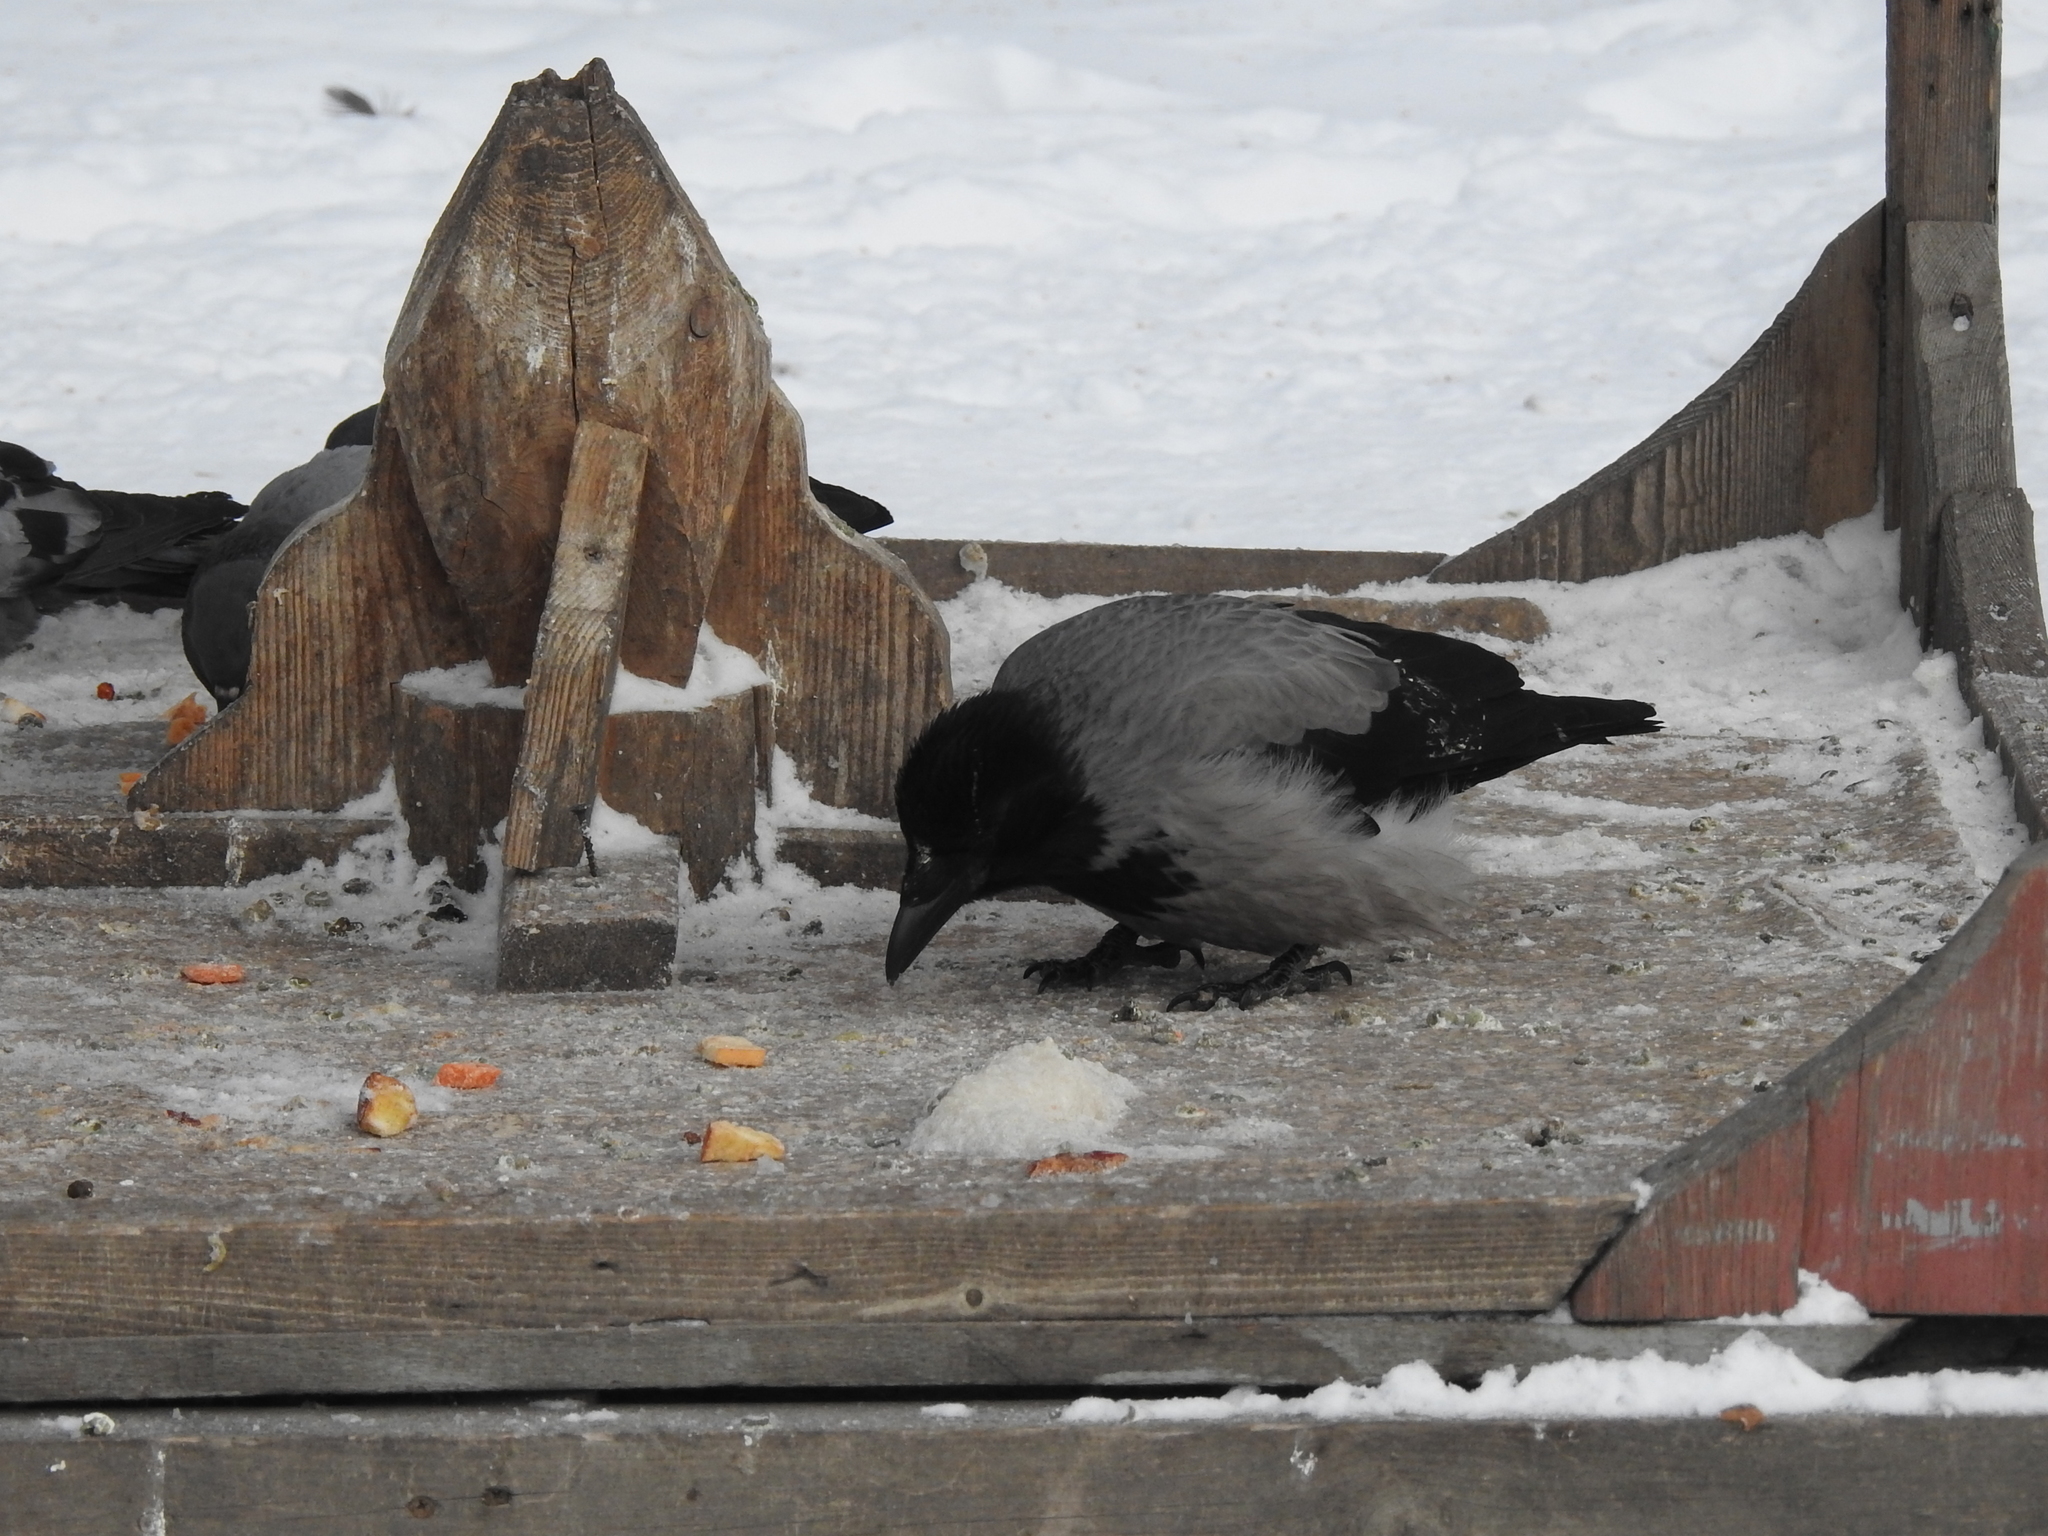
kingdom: Animalia
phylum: Chordata
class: Aves
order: Passeriformes
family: Corvidae
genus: Corvus
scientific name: Corvus cornix
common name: Hooded crow
